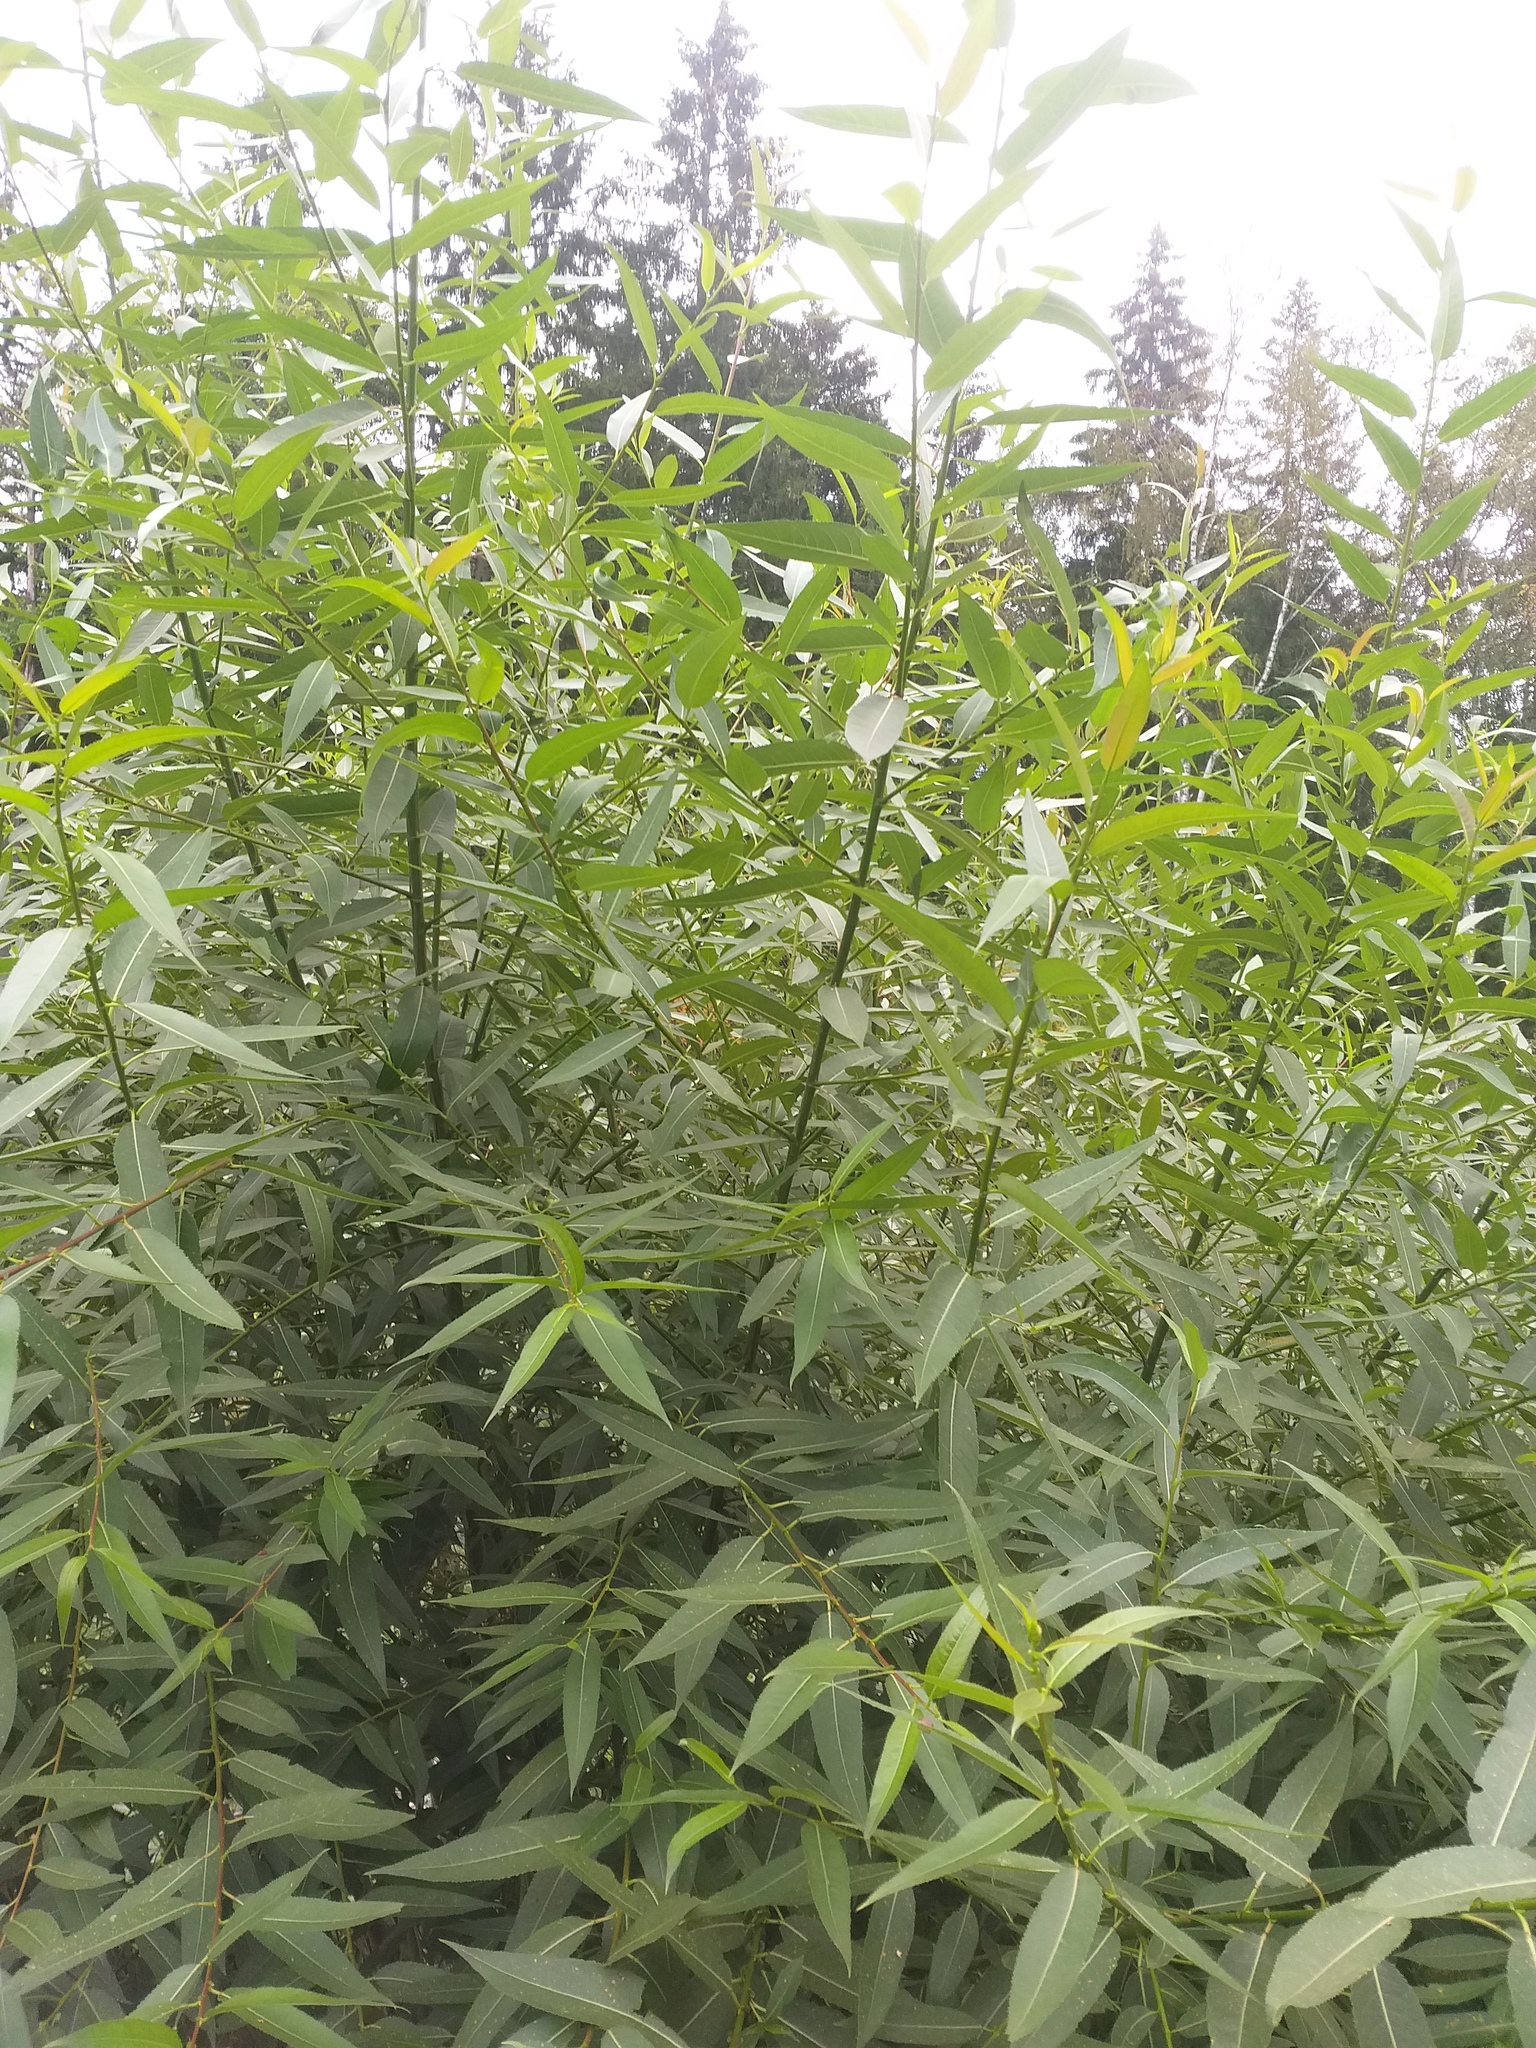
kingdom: Plantae
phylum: Tracheophyta
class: Magnoliopsida
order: Malpighiales
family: Salicaceae
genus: Salix
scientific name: Salix alba
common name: White willow
